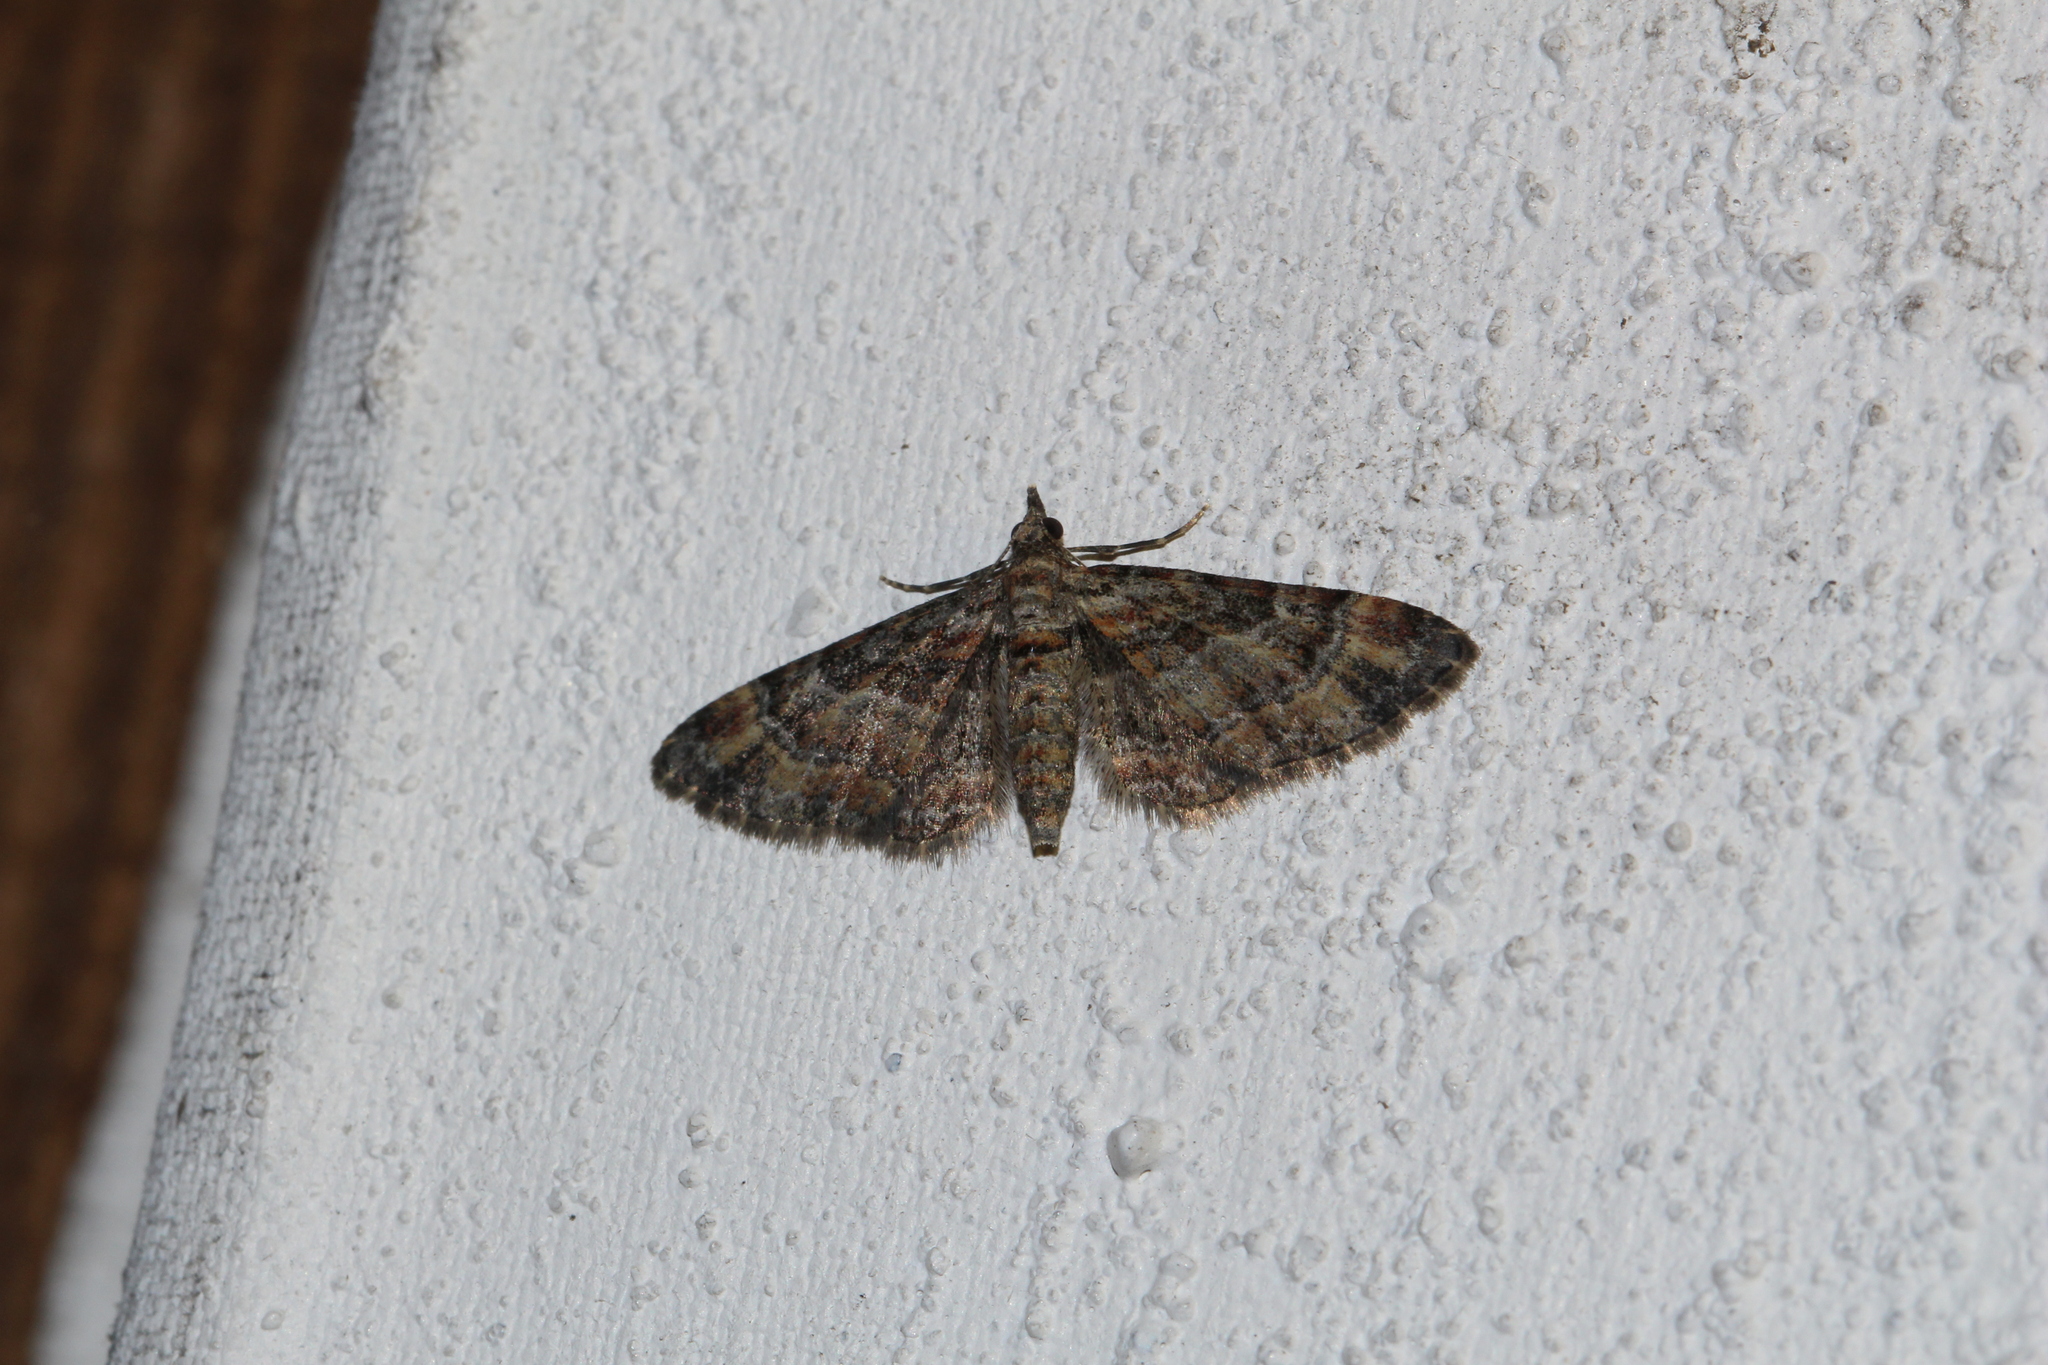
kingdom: Animalia
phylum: Arthropoda
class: Insecta
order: Lepidoptera
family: Geometridae
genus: Gymnoscelis
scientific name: Gymnoscelis rufifasciata
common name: Double-striped pug
